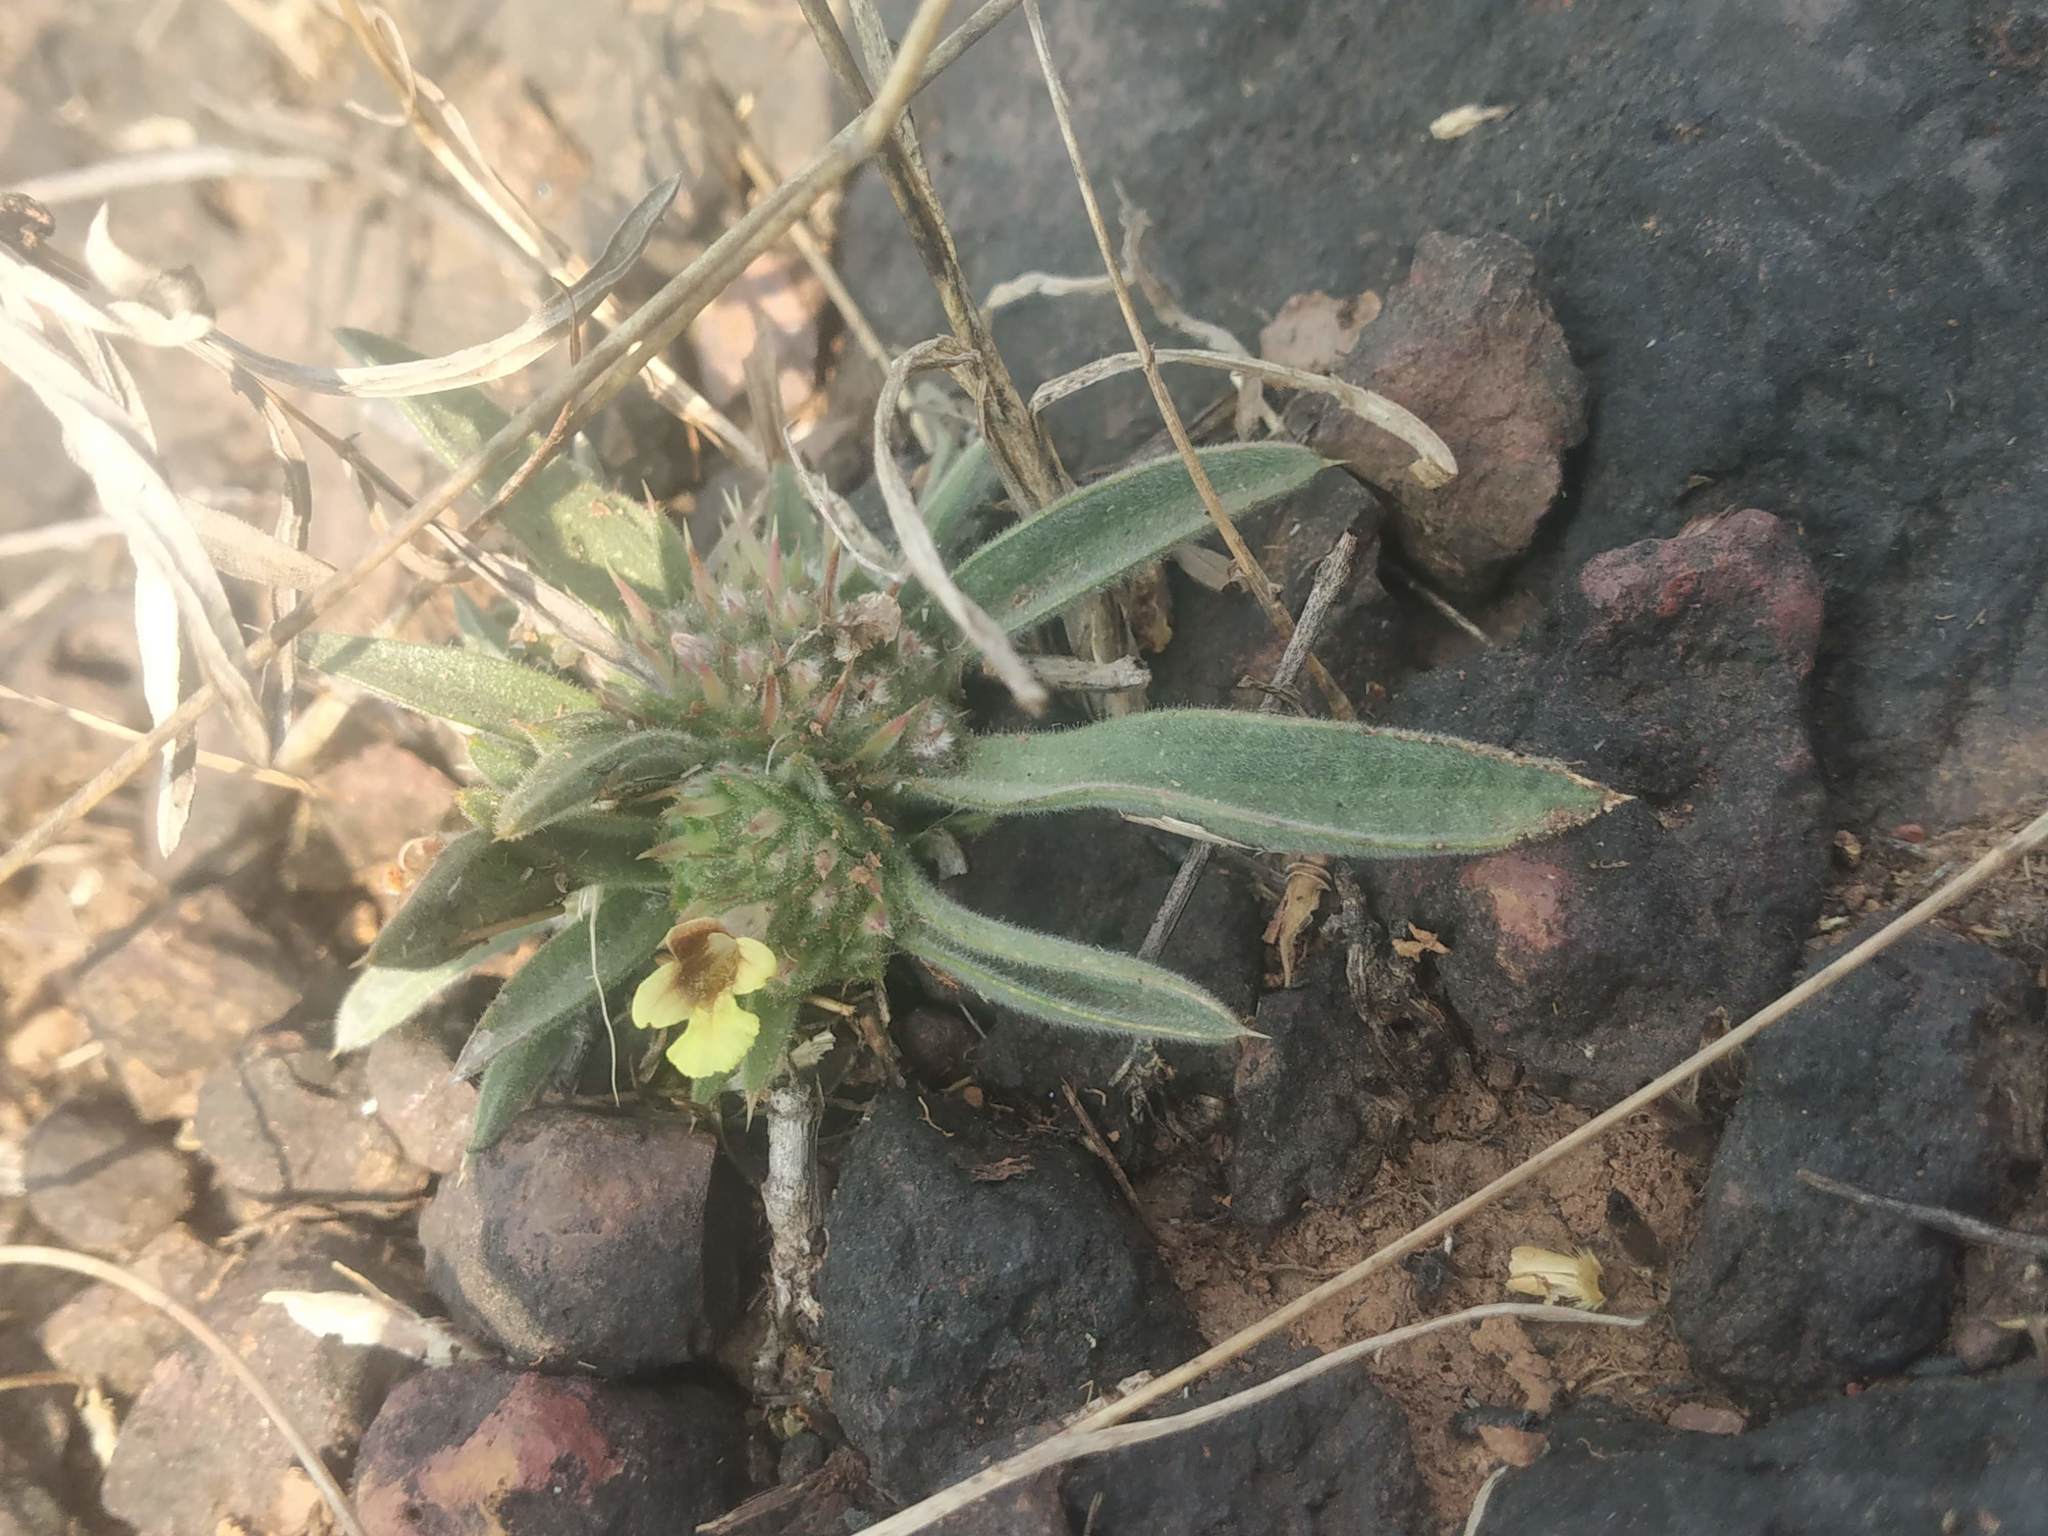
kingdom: Plantae
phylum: Tracheophyta
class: Magnoliopsida
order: Lamiales
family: Acanthaceae
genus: Lepidagathis
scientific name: Lepidagathis lutea
